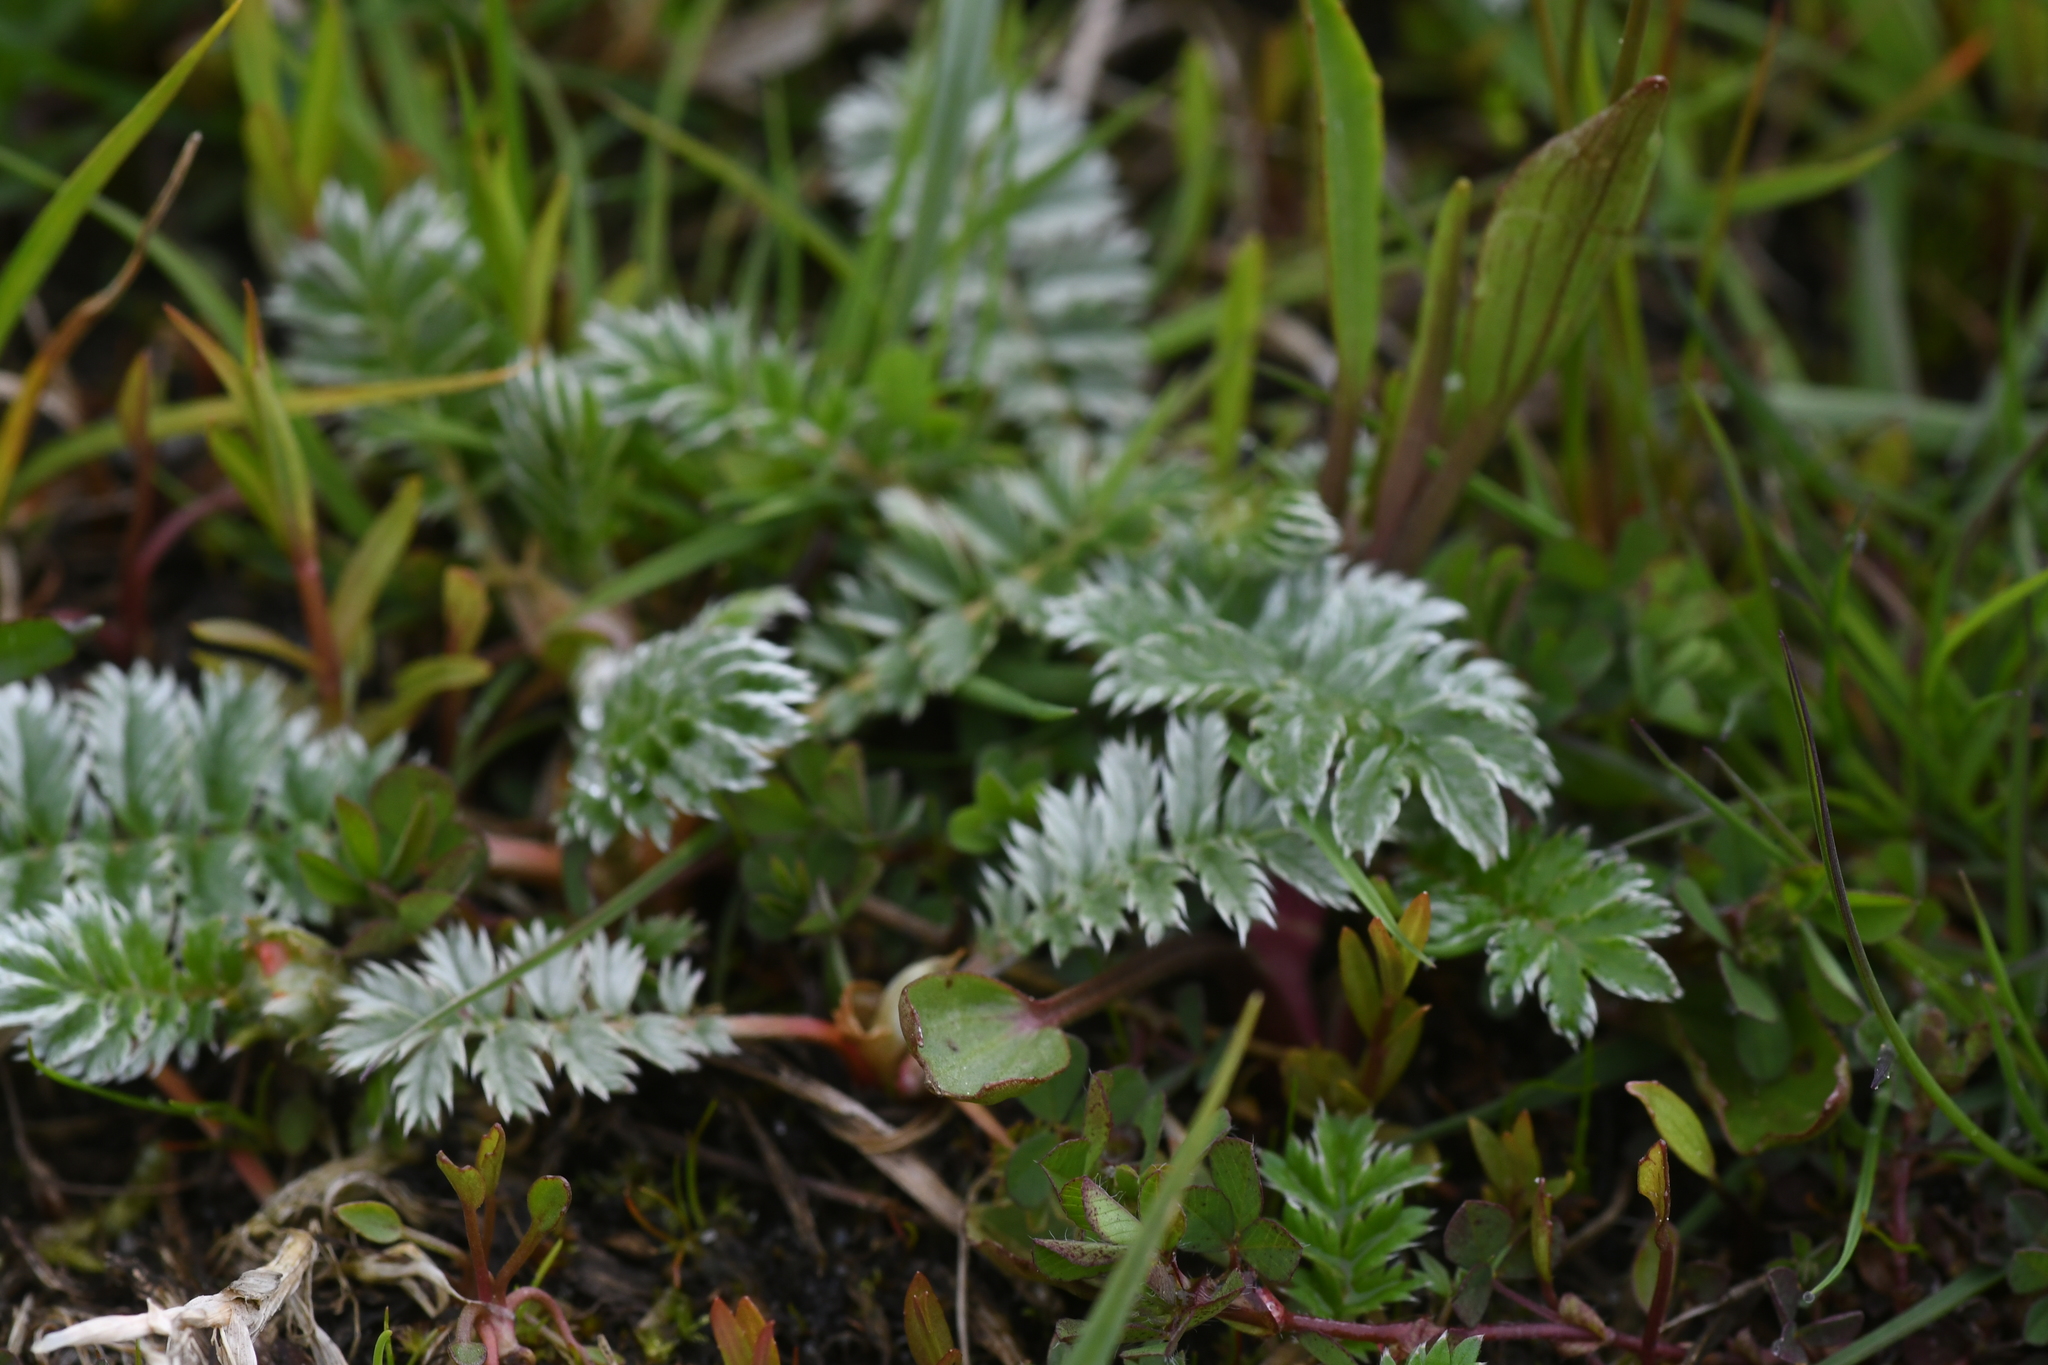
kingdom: Plantae
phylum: Tracheophyta
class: Magnoliopsida
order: Rosales
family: Rosaceae
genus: Argentina
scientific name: Argentina anserina
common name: Common silverweed
